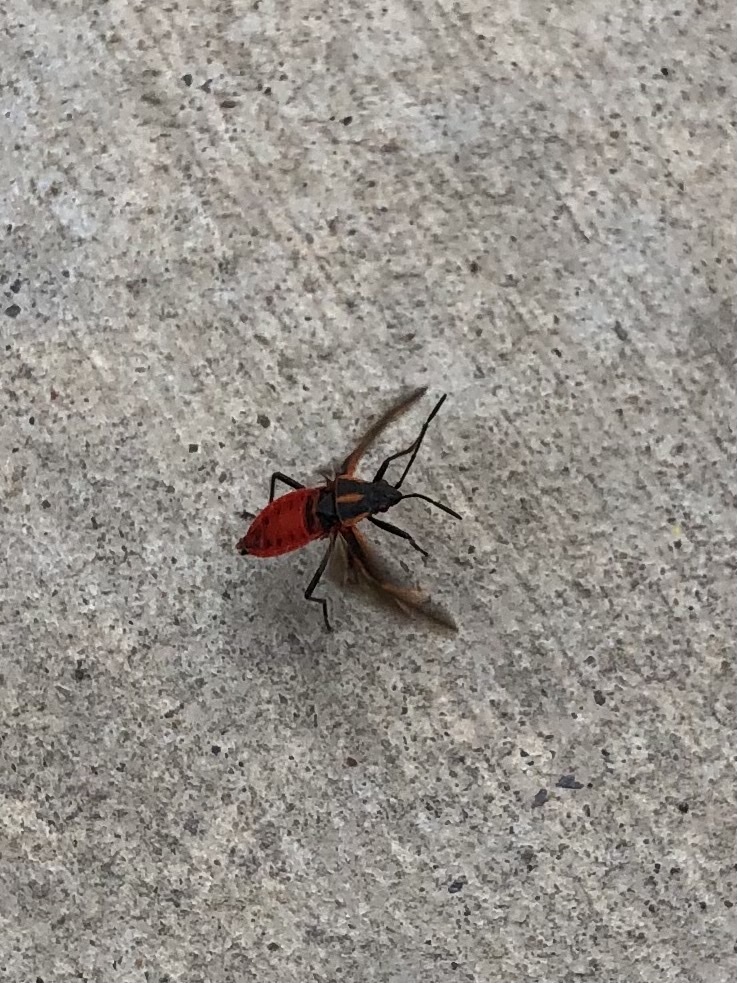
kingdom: Animalia
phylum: Arthropoda
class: Insecta
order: Hemiptera
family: Rhopalidae
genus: Boisea
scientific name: Boisea trivittata
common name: Boxelder bug
